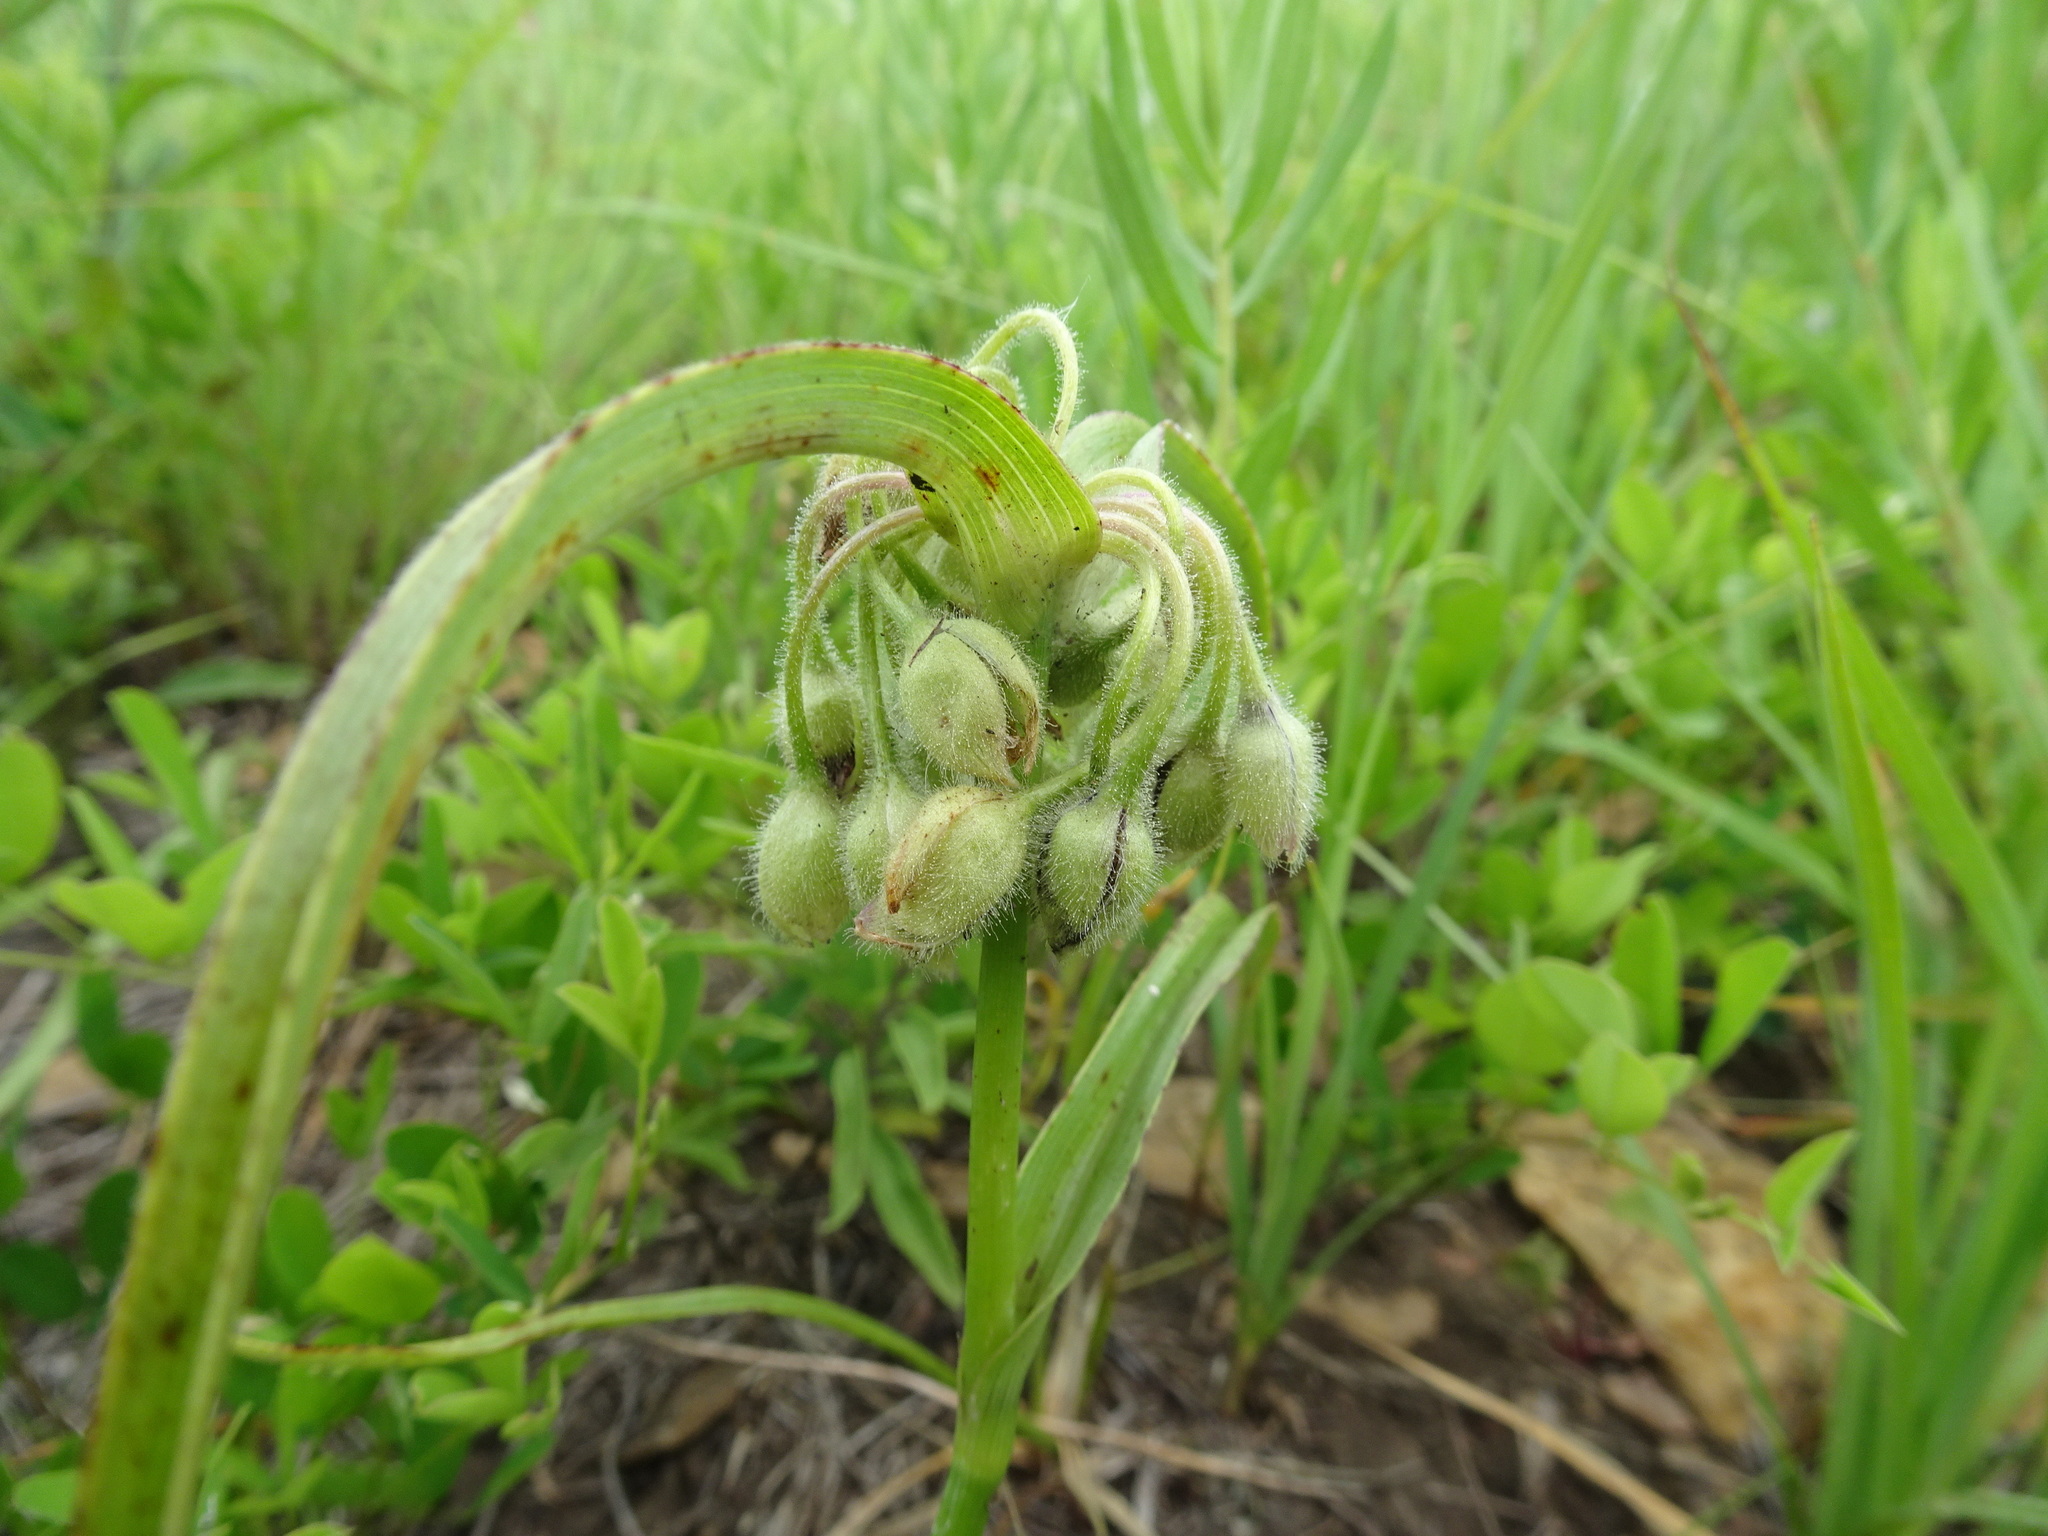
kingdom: Plantae
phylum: Tracheophyta
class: Liliopsida
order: Commelinales
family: Commelinaceae
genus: Tradescantia
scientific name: Tradescantia bracteata
